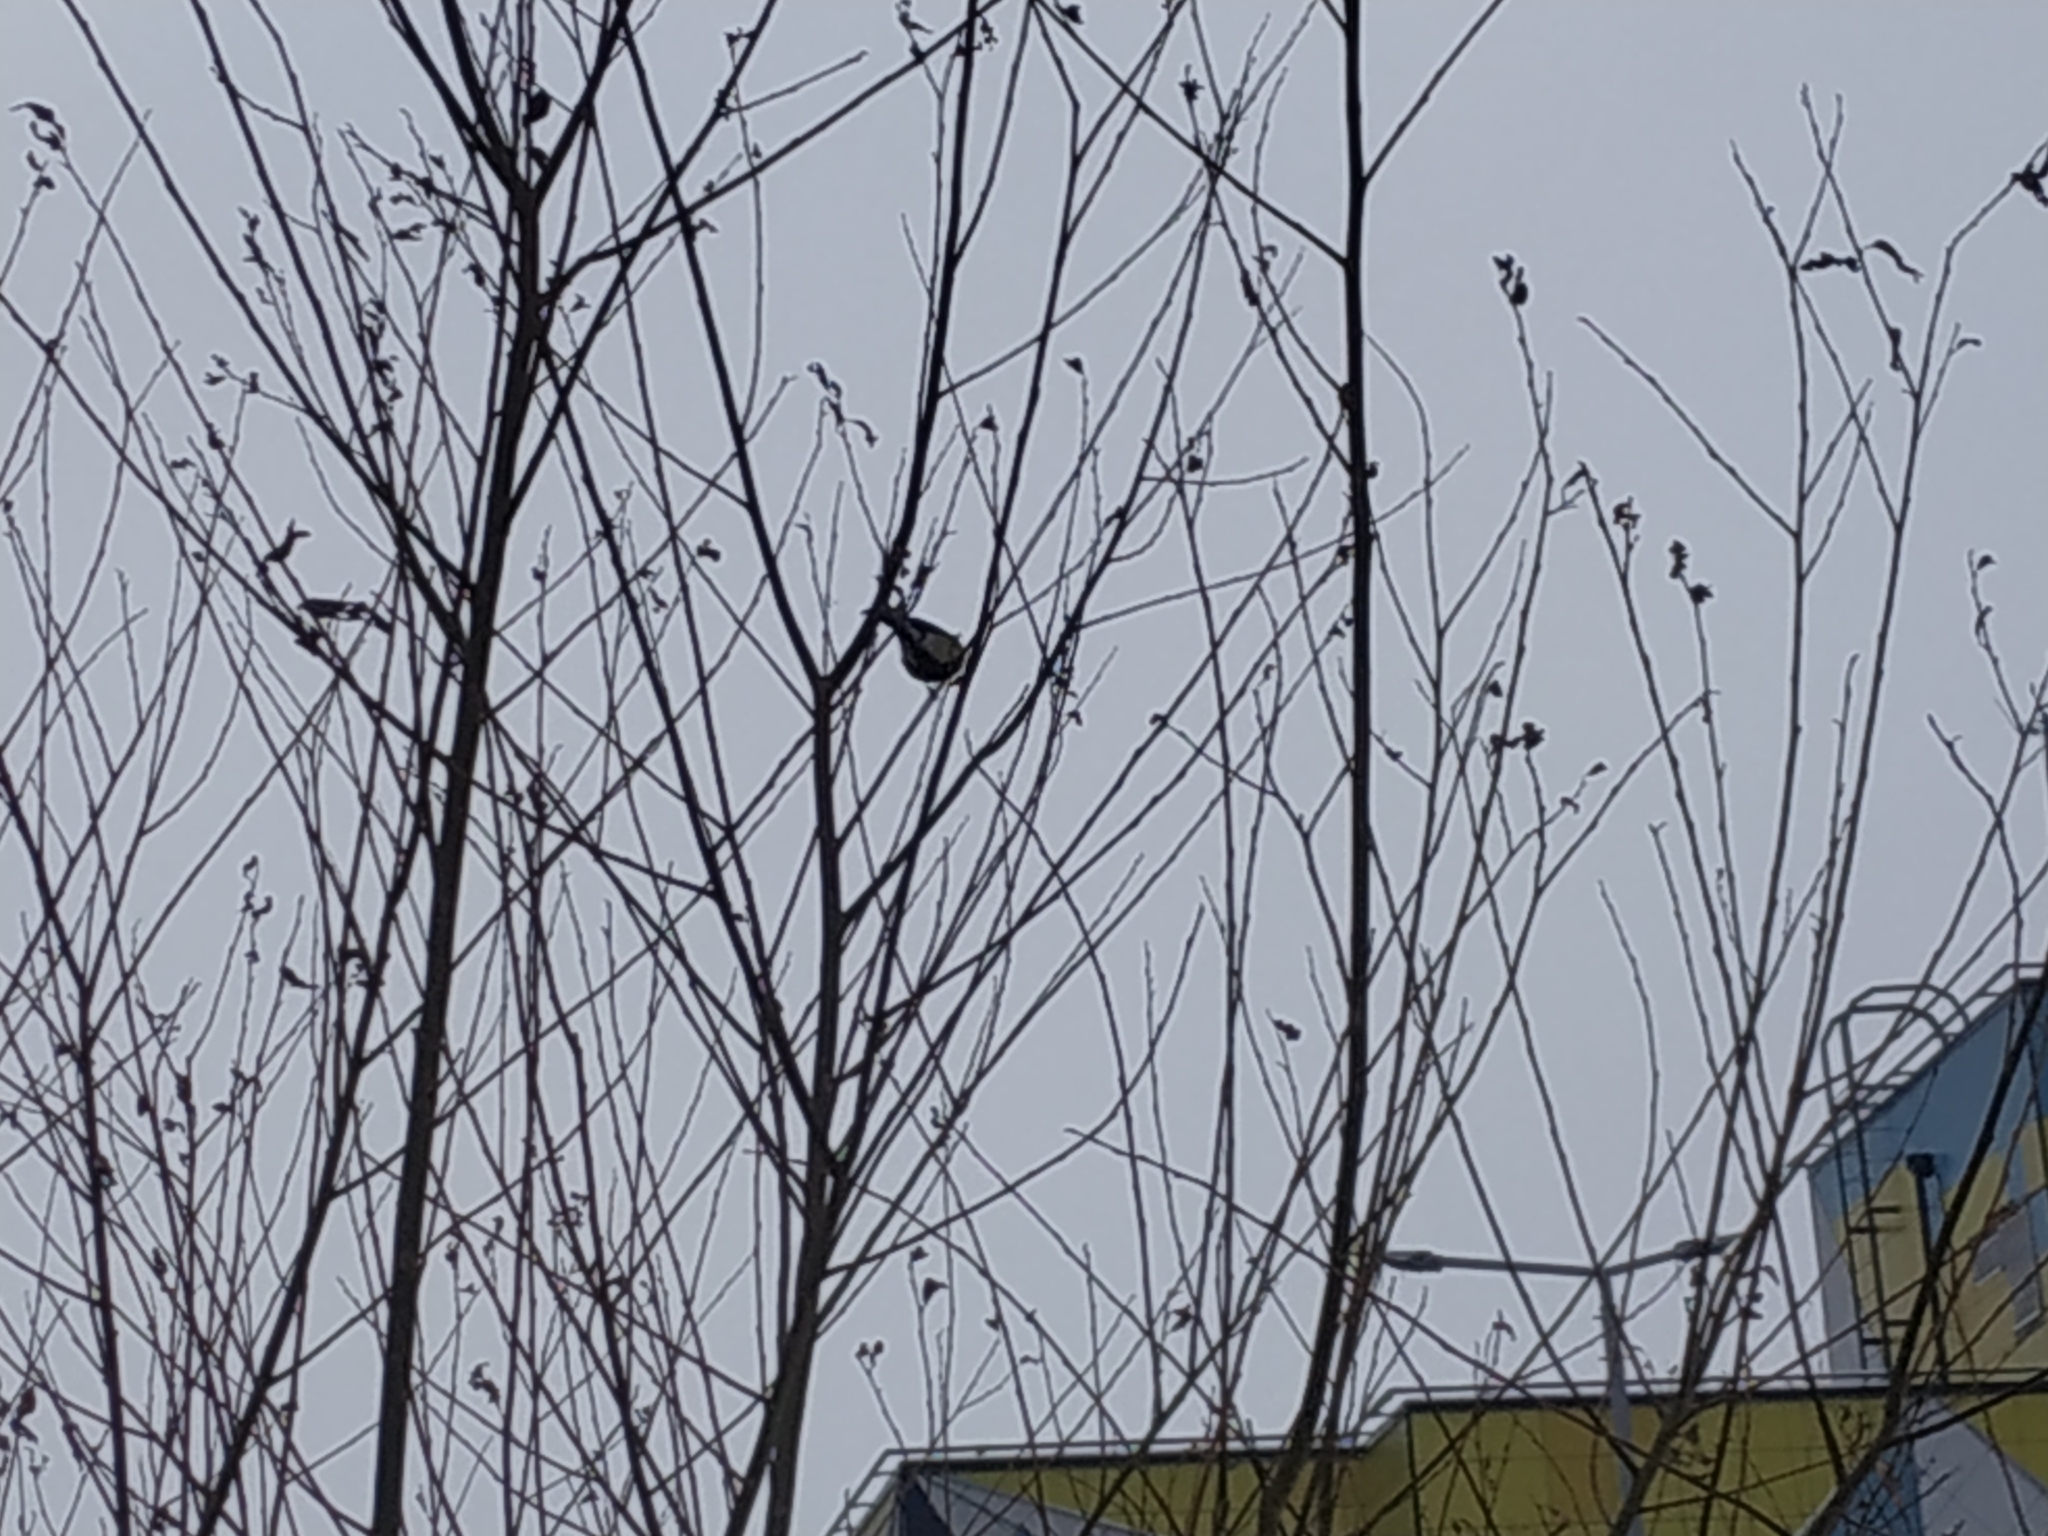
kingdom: Animalia
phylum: Chordata
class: Aves
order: Passeriformes
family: Paridae
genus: Parus
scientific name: Parus major
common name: Great tit
